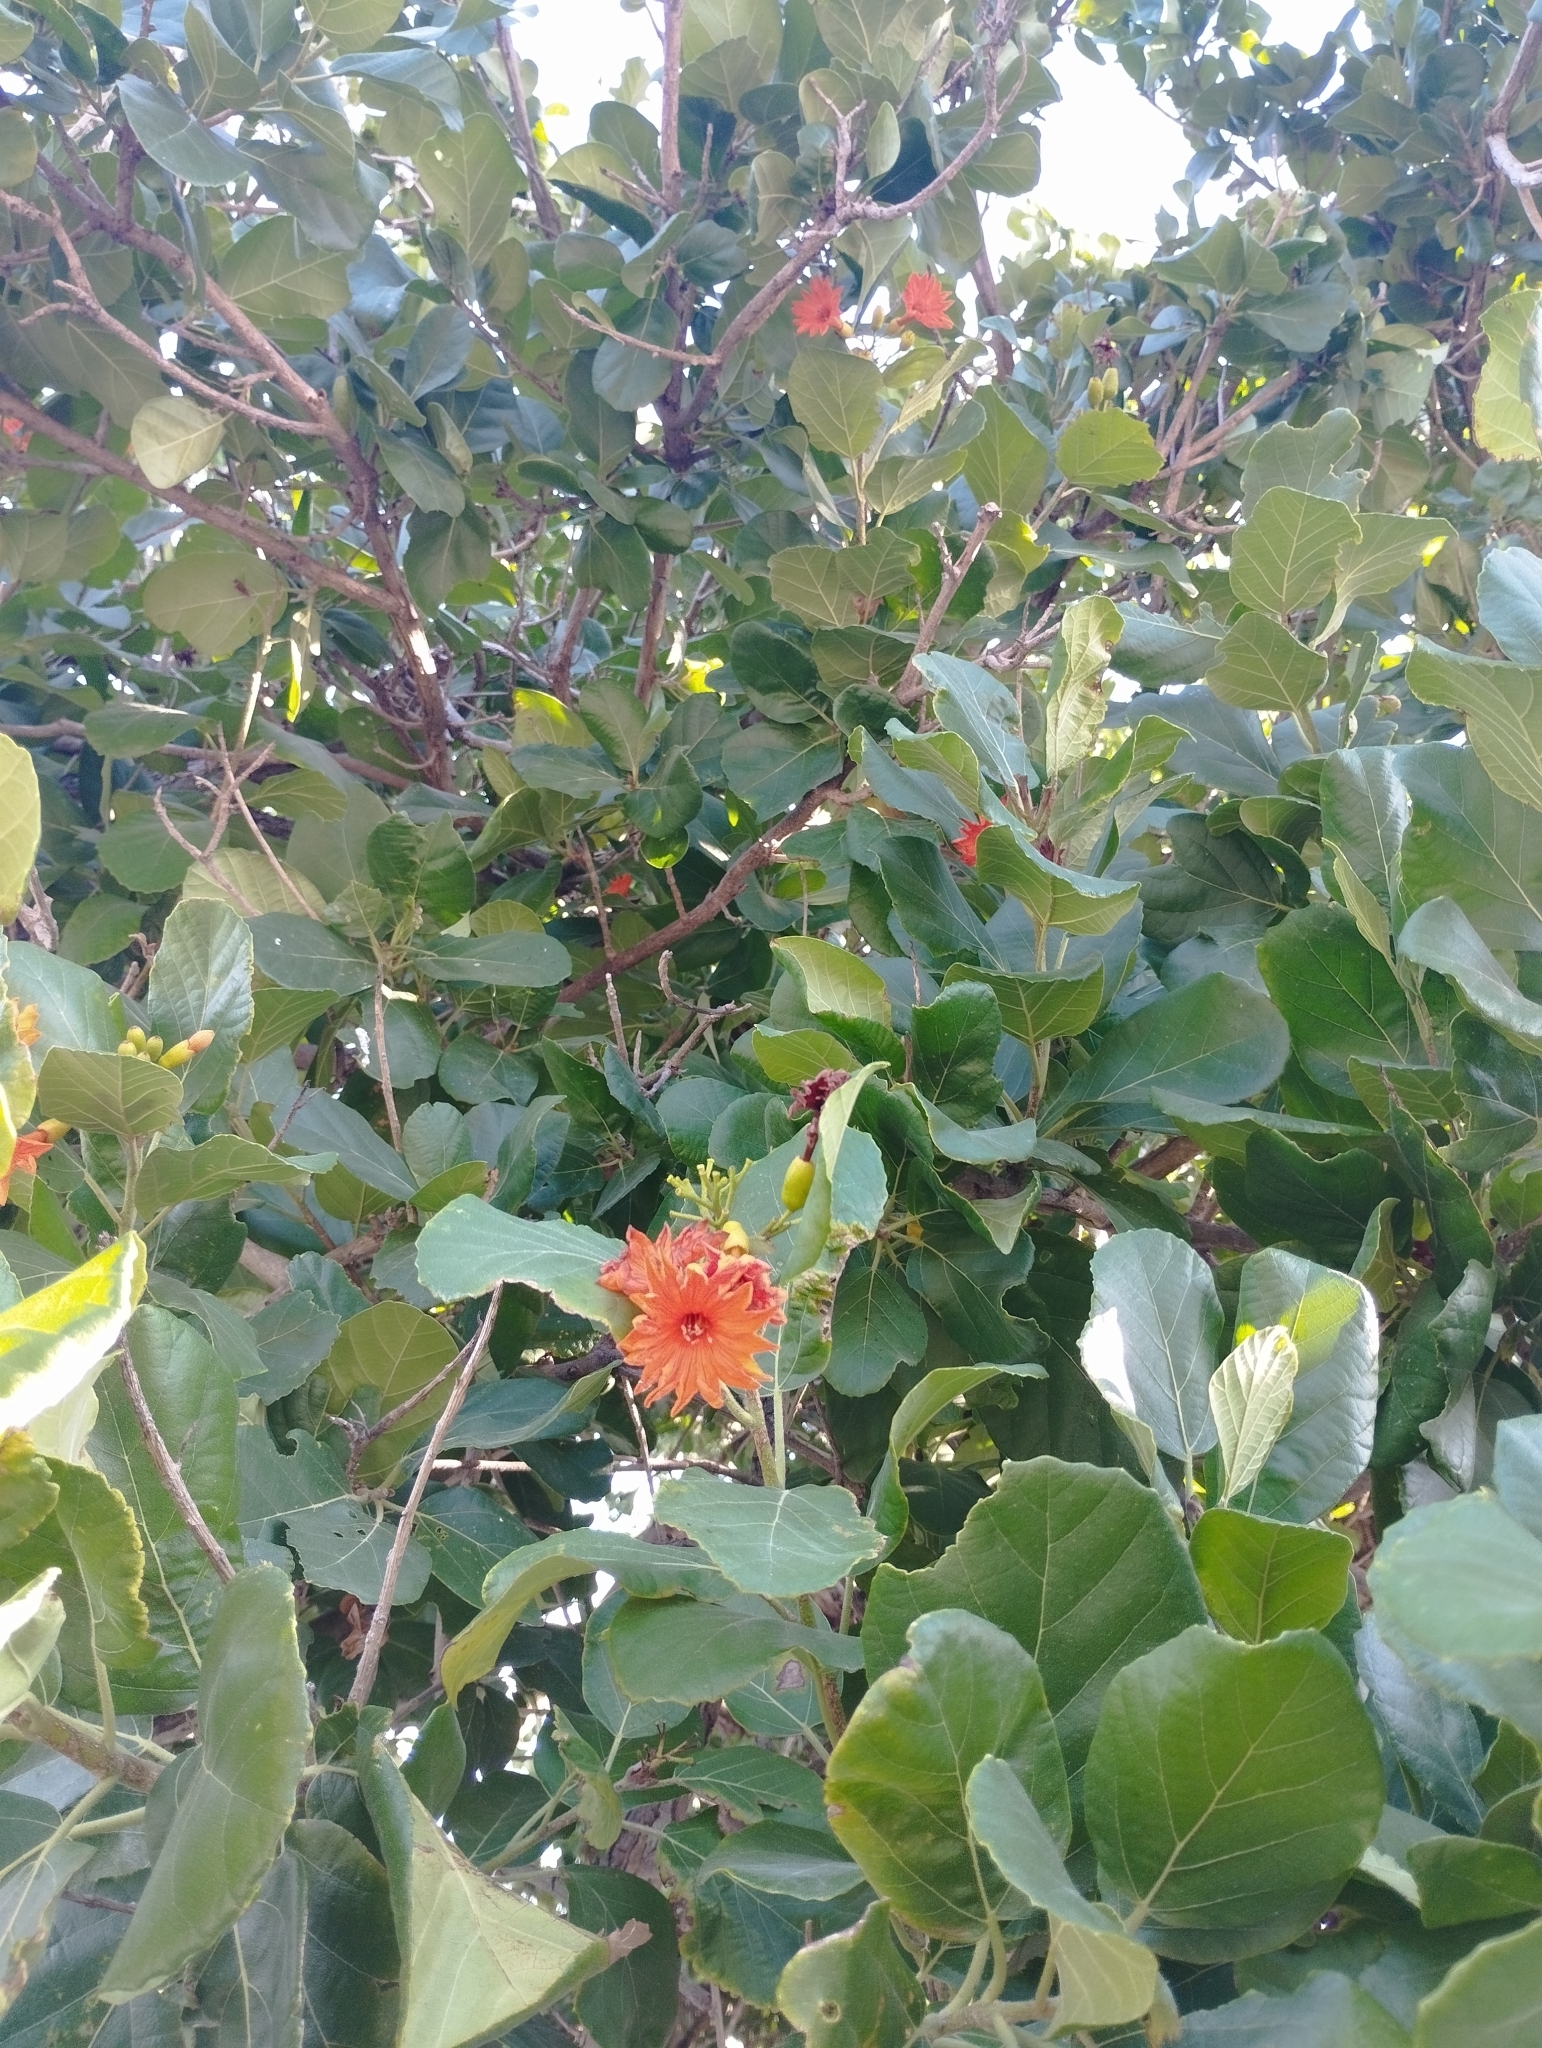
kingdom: Plantae
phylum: Tracheophyta
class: Magnoliopsida
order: Boraginales
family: Cordiaceae
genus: Cordia
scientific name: Cordia dodecandra
